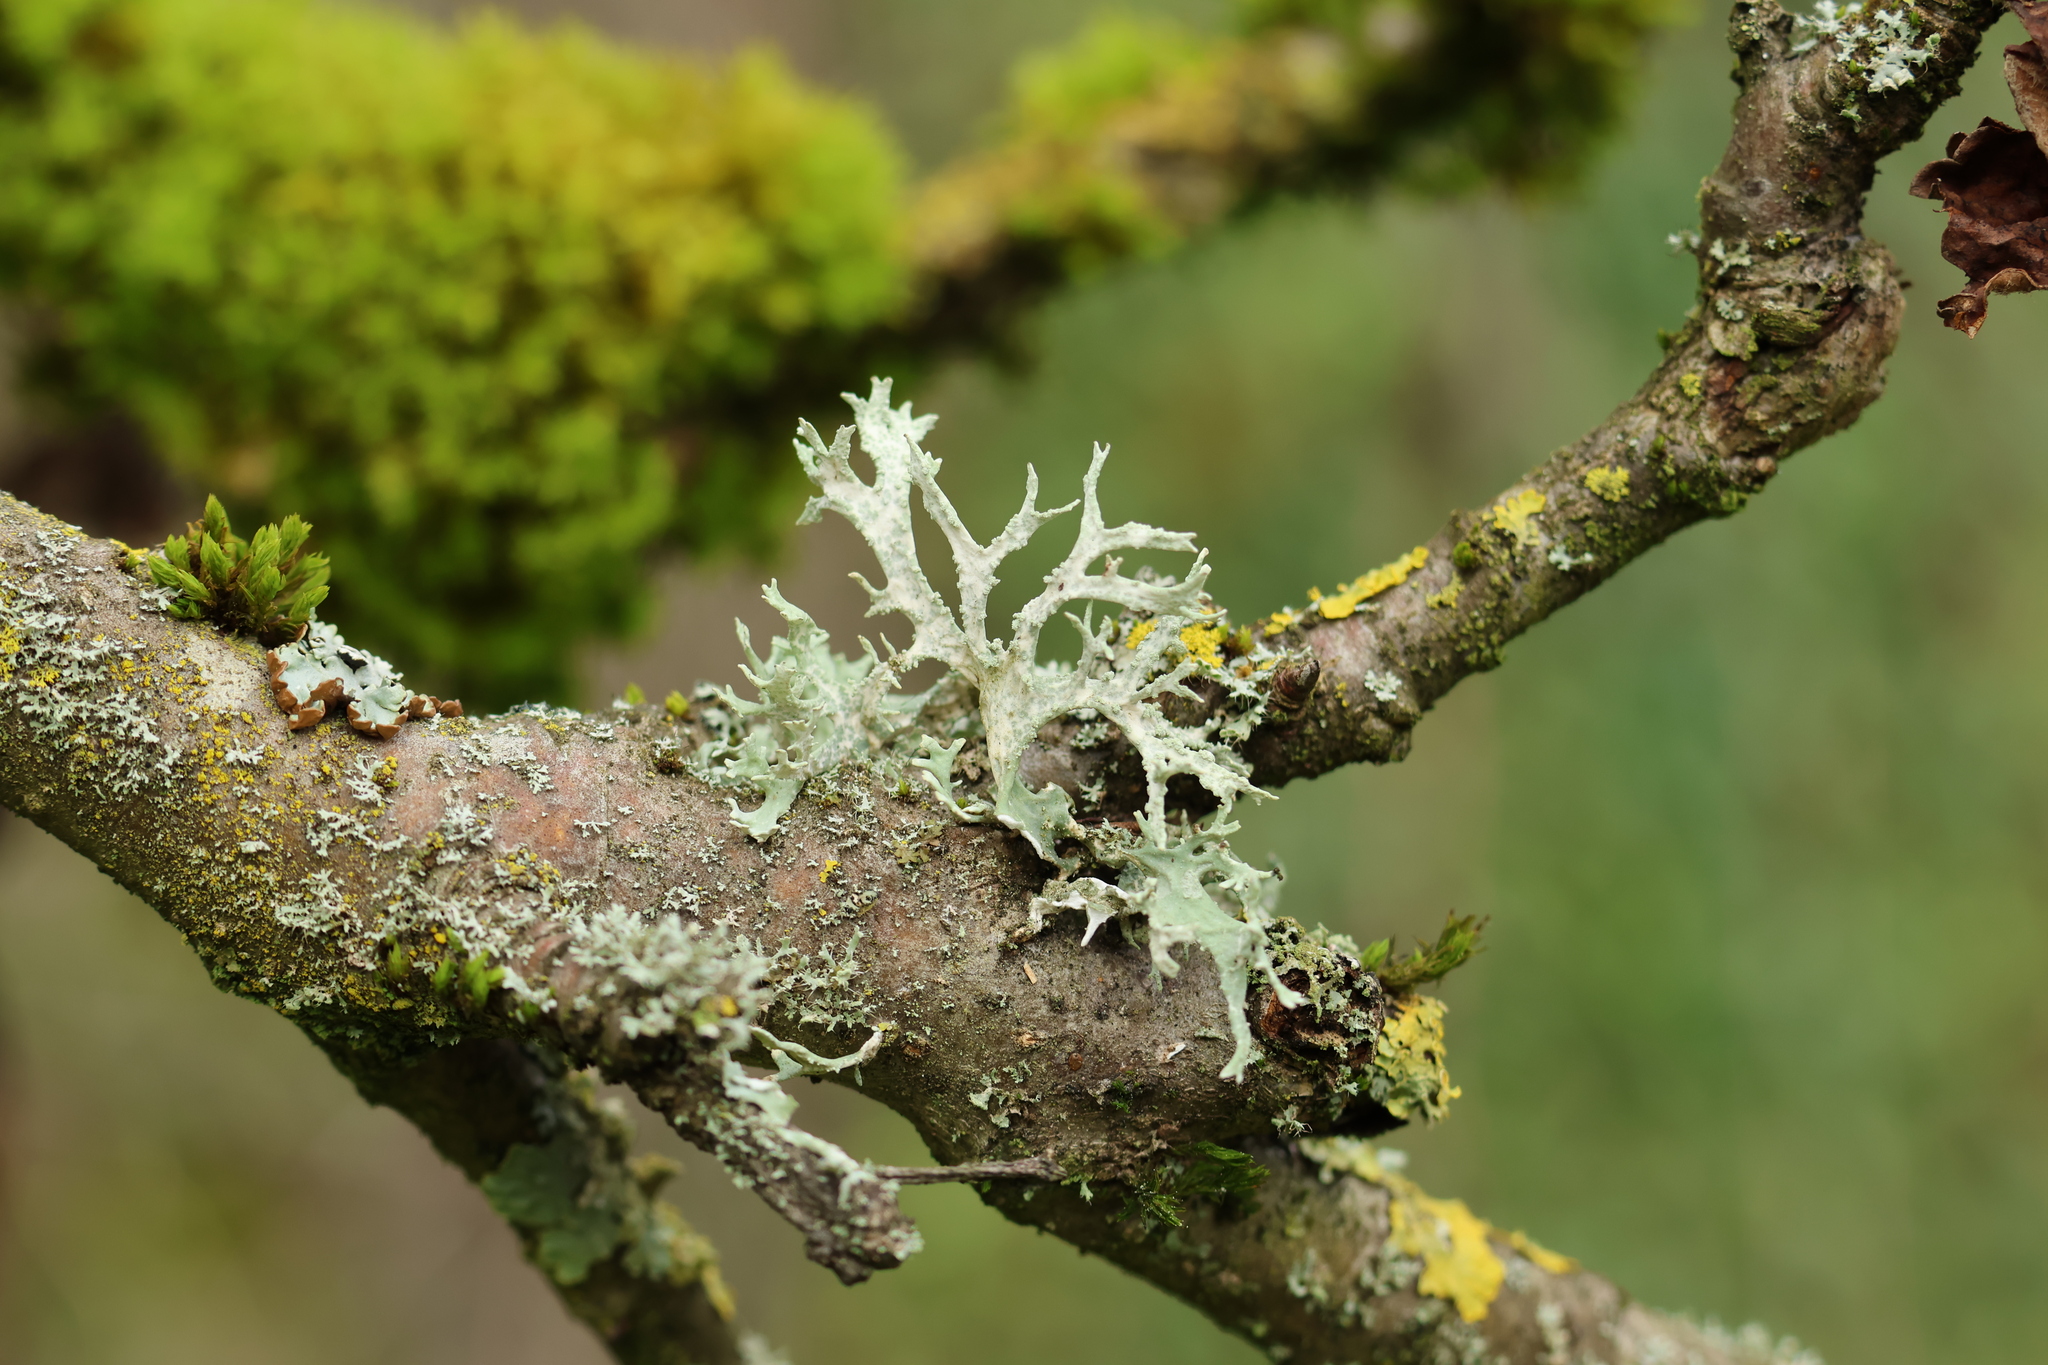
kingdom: Fungi
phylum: Ascomycota
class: Lecanoromycetes
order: Lecanorales
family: Parmeliaceae
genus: Evernia
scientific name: Evernia prunastri
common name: Oak moss
